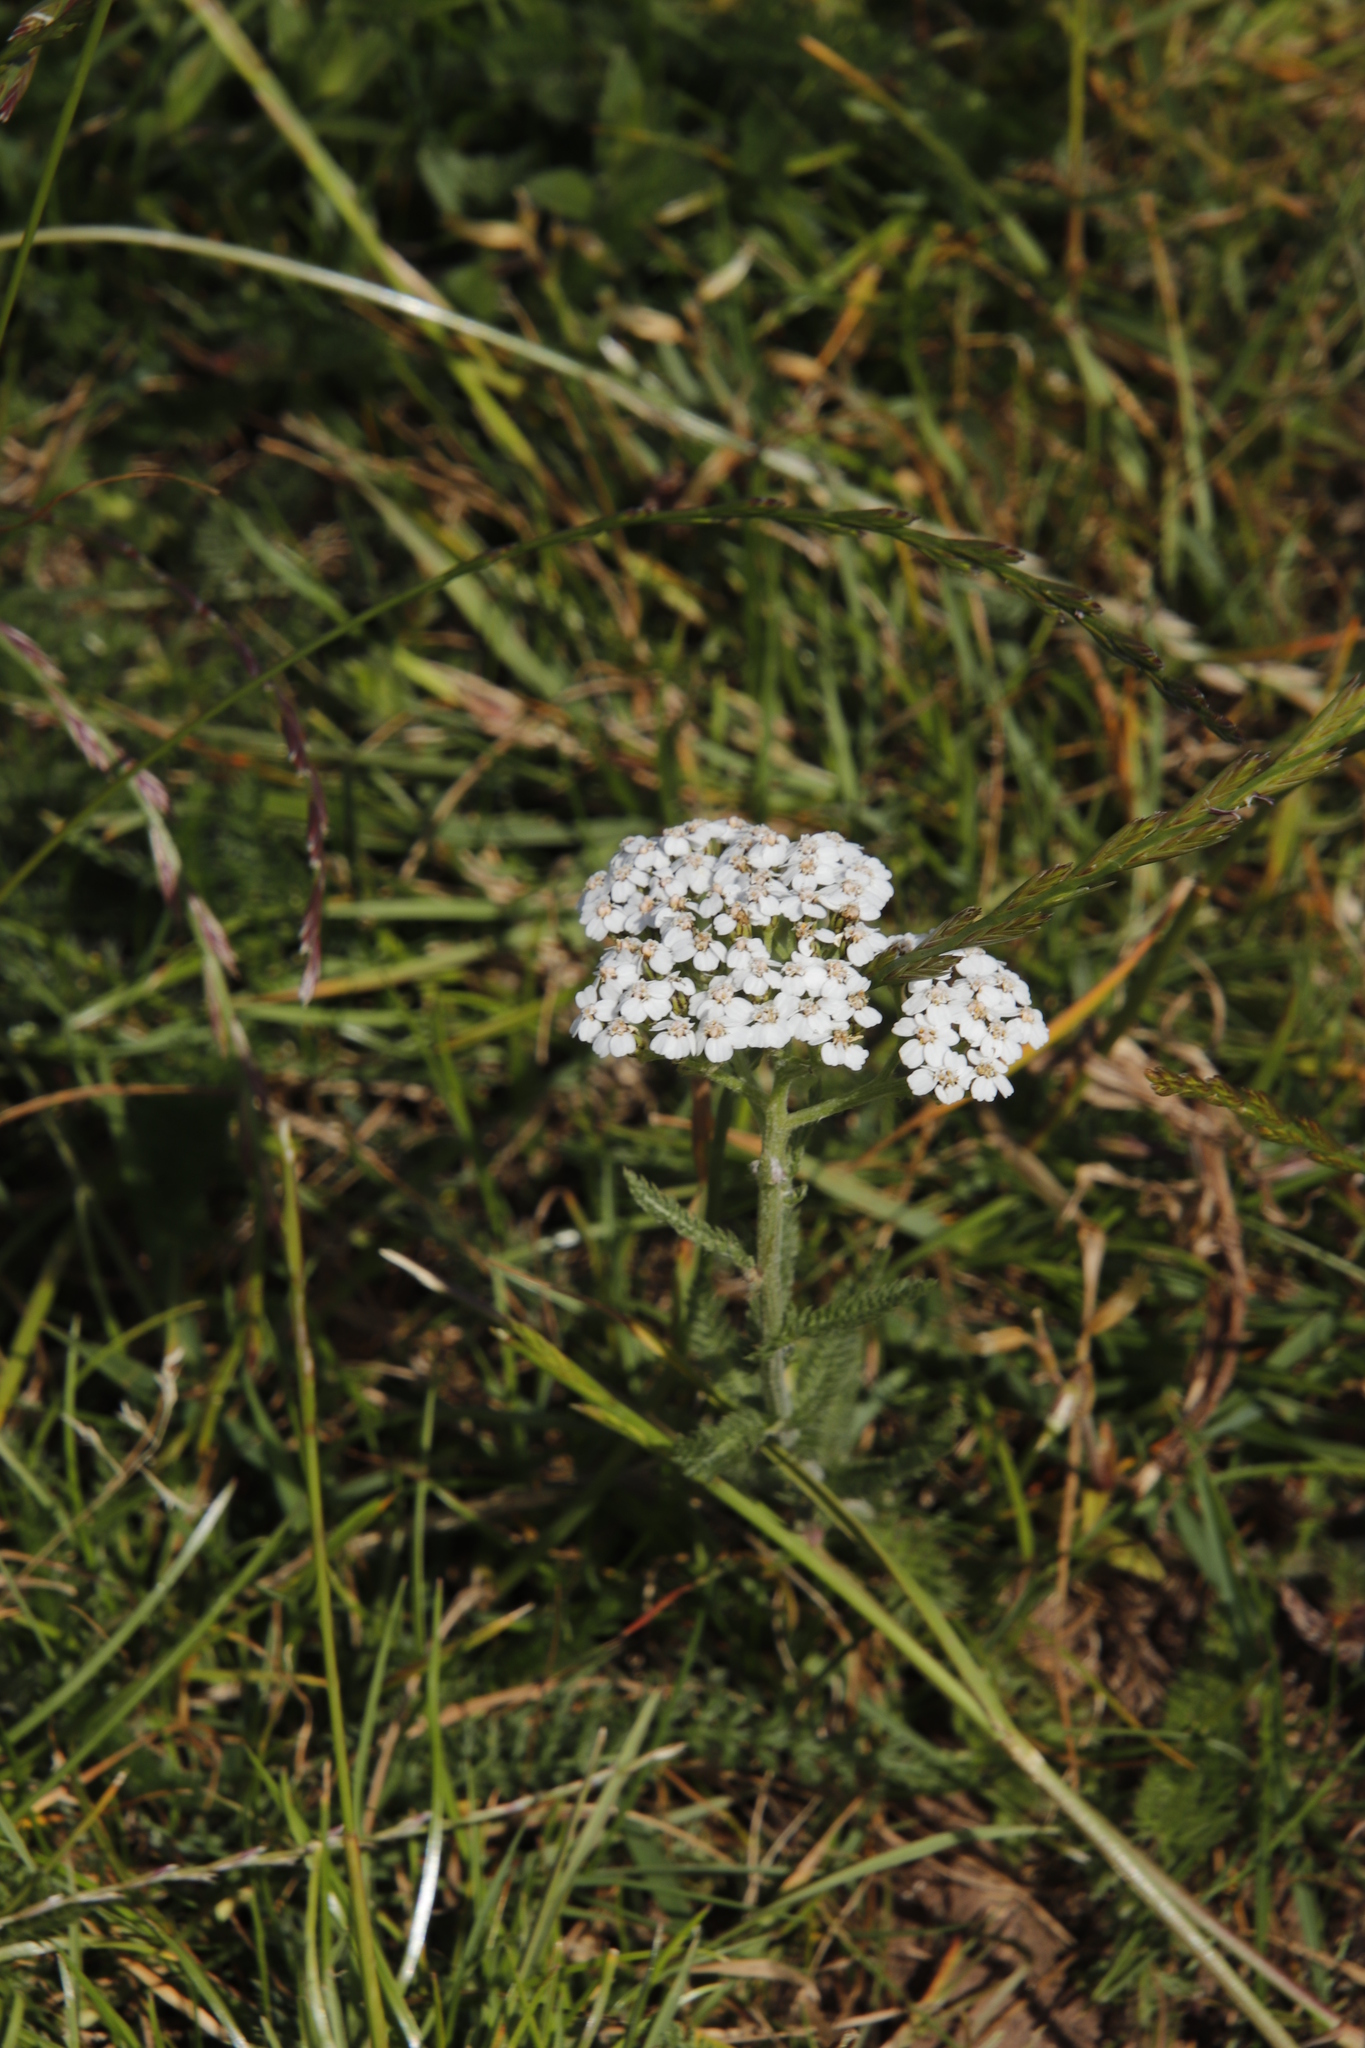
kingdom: Plantae
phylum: Tracheophyta
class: Magnoliopsida
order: Asterales
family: Asteraceae
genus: Achillea
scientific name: Achillea millefolium
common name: Yarrow
